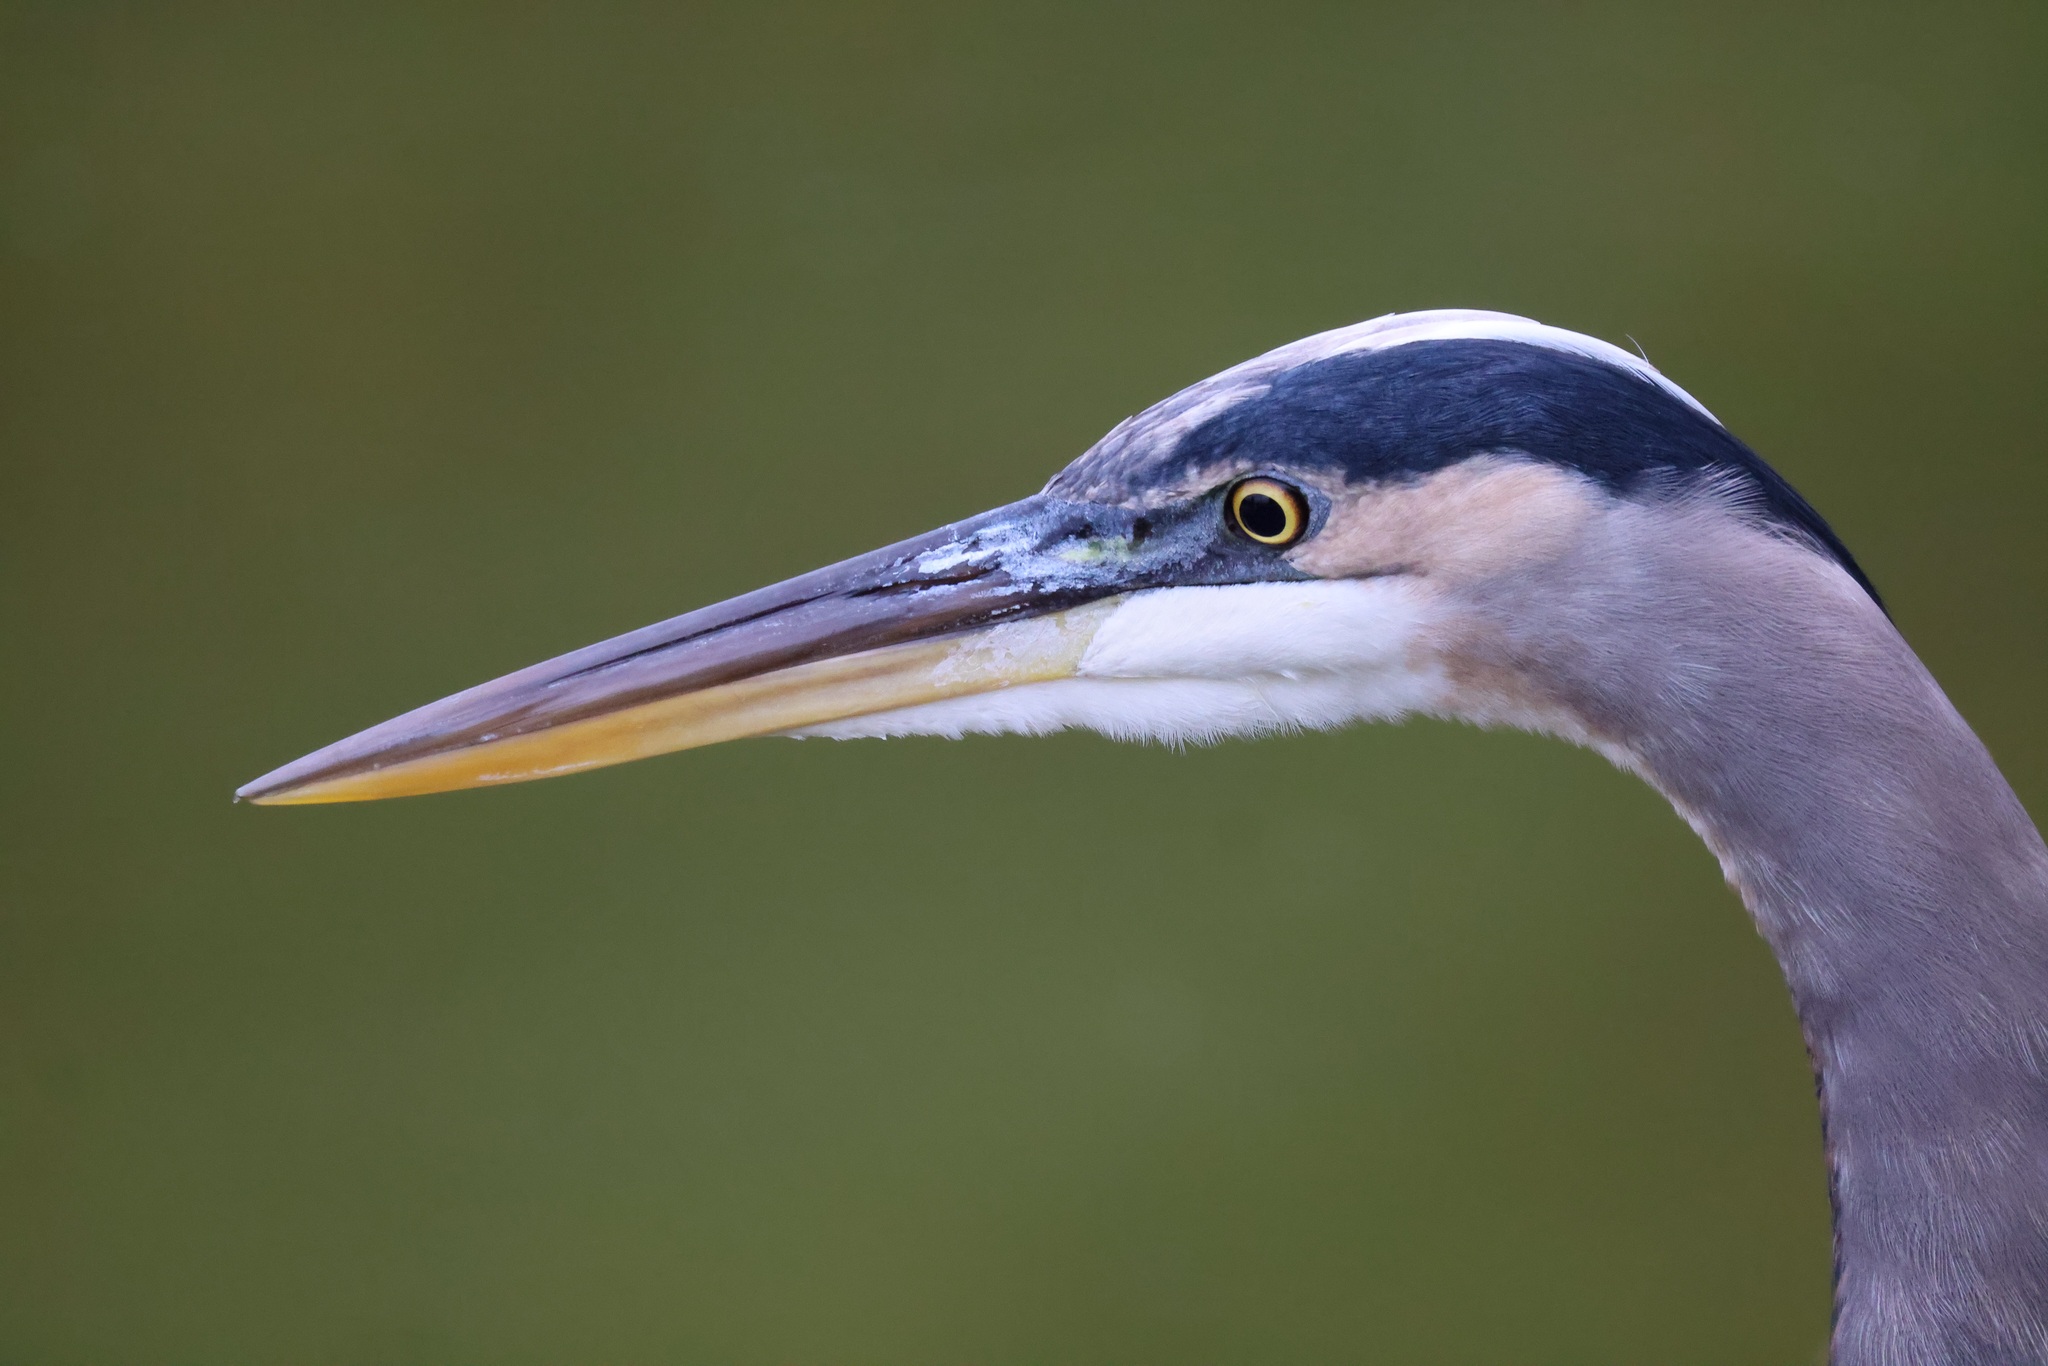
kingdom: Animalia
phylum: Chordata
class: Aves
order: Pelecaniformes
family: Ardeidae
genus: Ardea
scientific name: Ardea herodias
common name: Great blue heron
